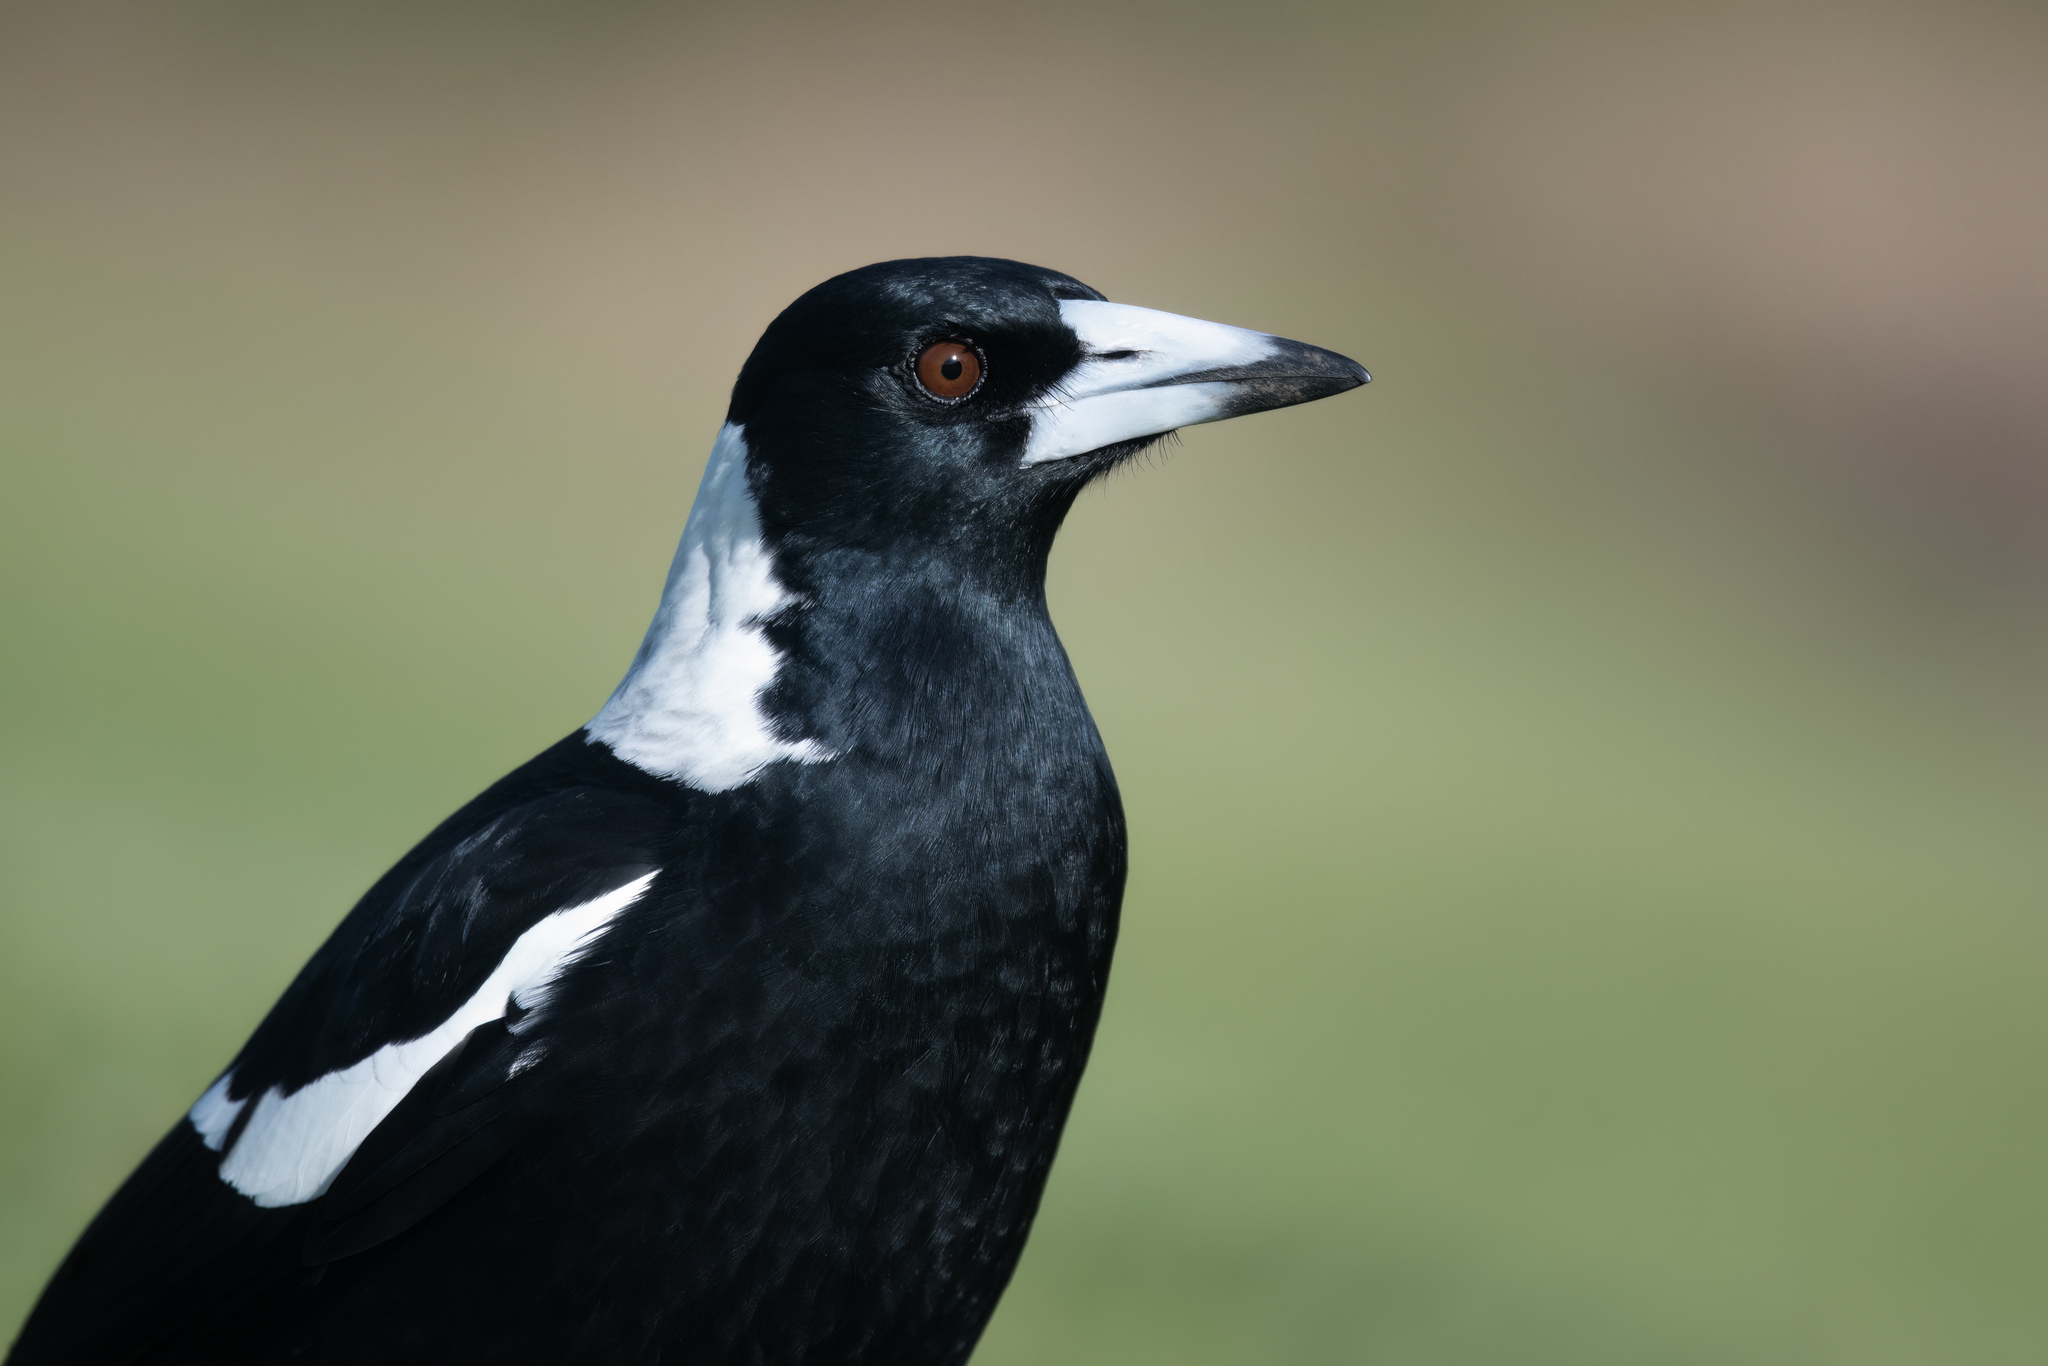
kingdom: Animalia
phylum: Chordata
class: Aves
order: Passeriformes
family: Cracticidae
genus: Gymnorhina
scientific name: Gymnorhina tibicen
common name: Australian magpie
